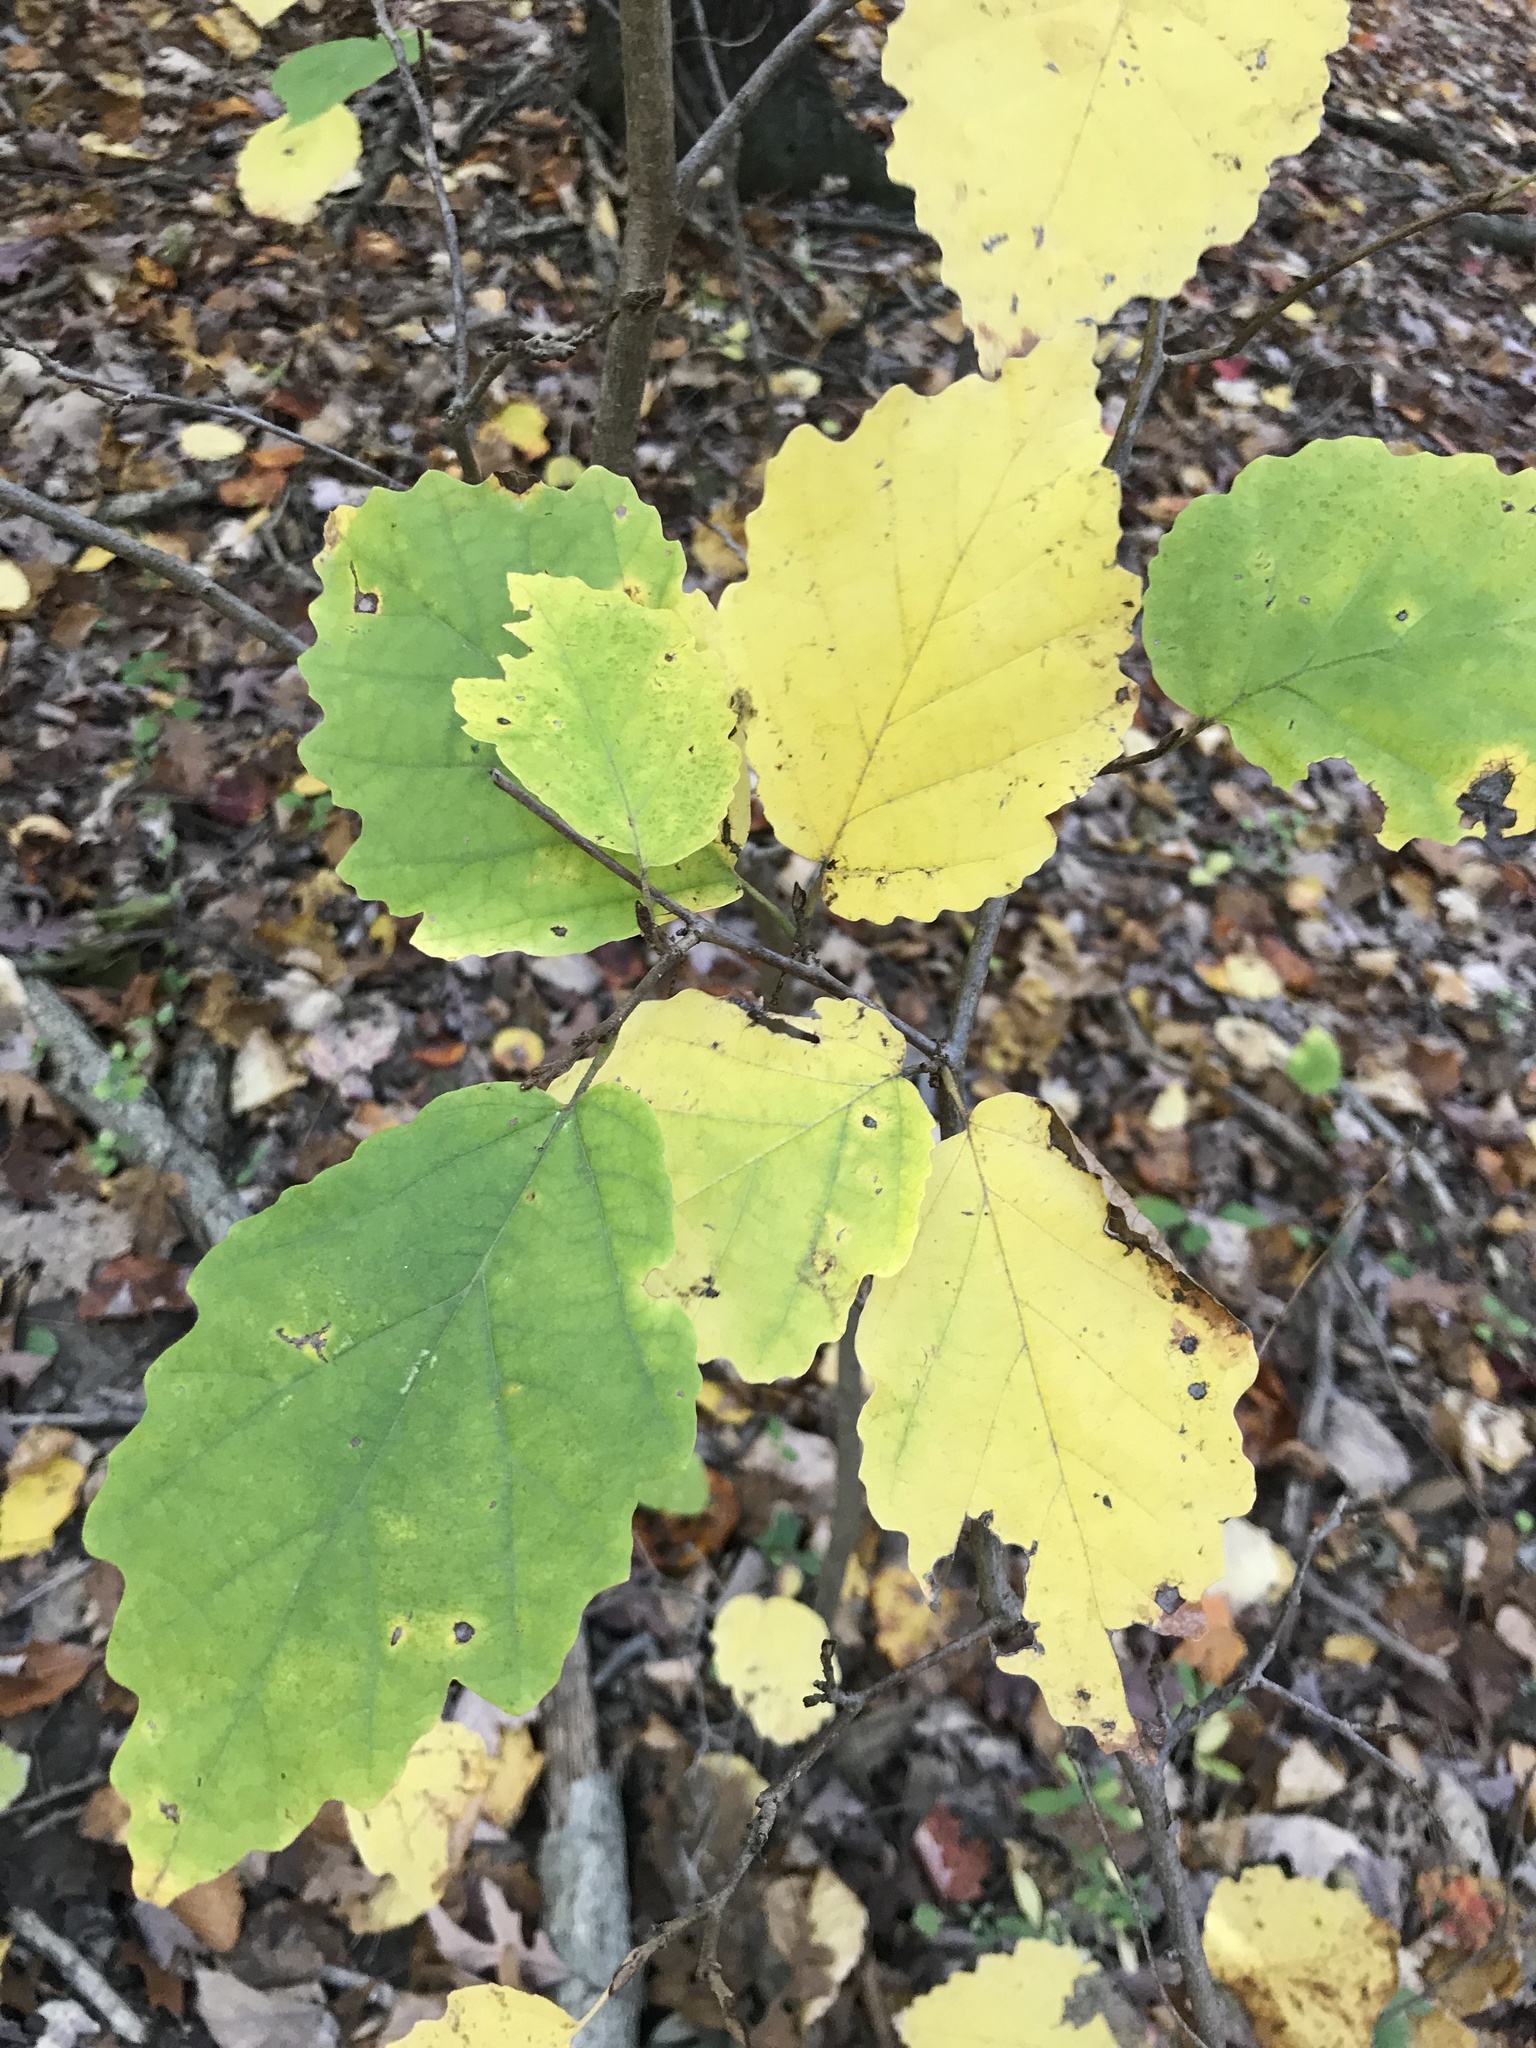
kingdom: Plantae
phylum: Tracheophyta
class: Magnoliopsida
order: Saxifragales
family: Hamamelidaceae
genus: Hamamelis
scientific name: Hamamelis virginiana
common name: Witch-hazel
